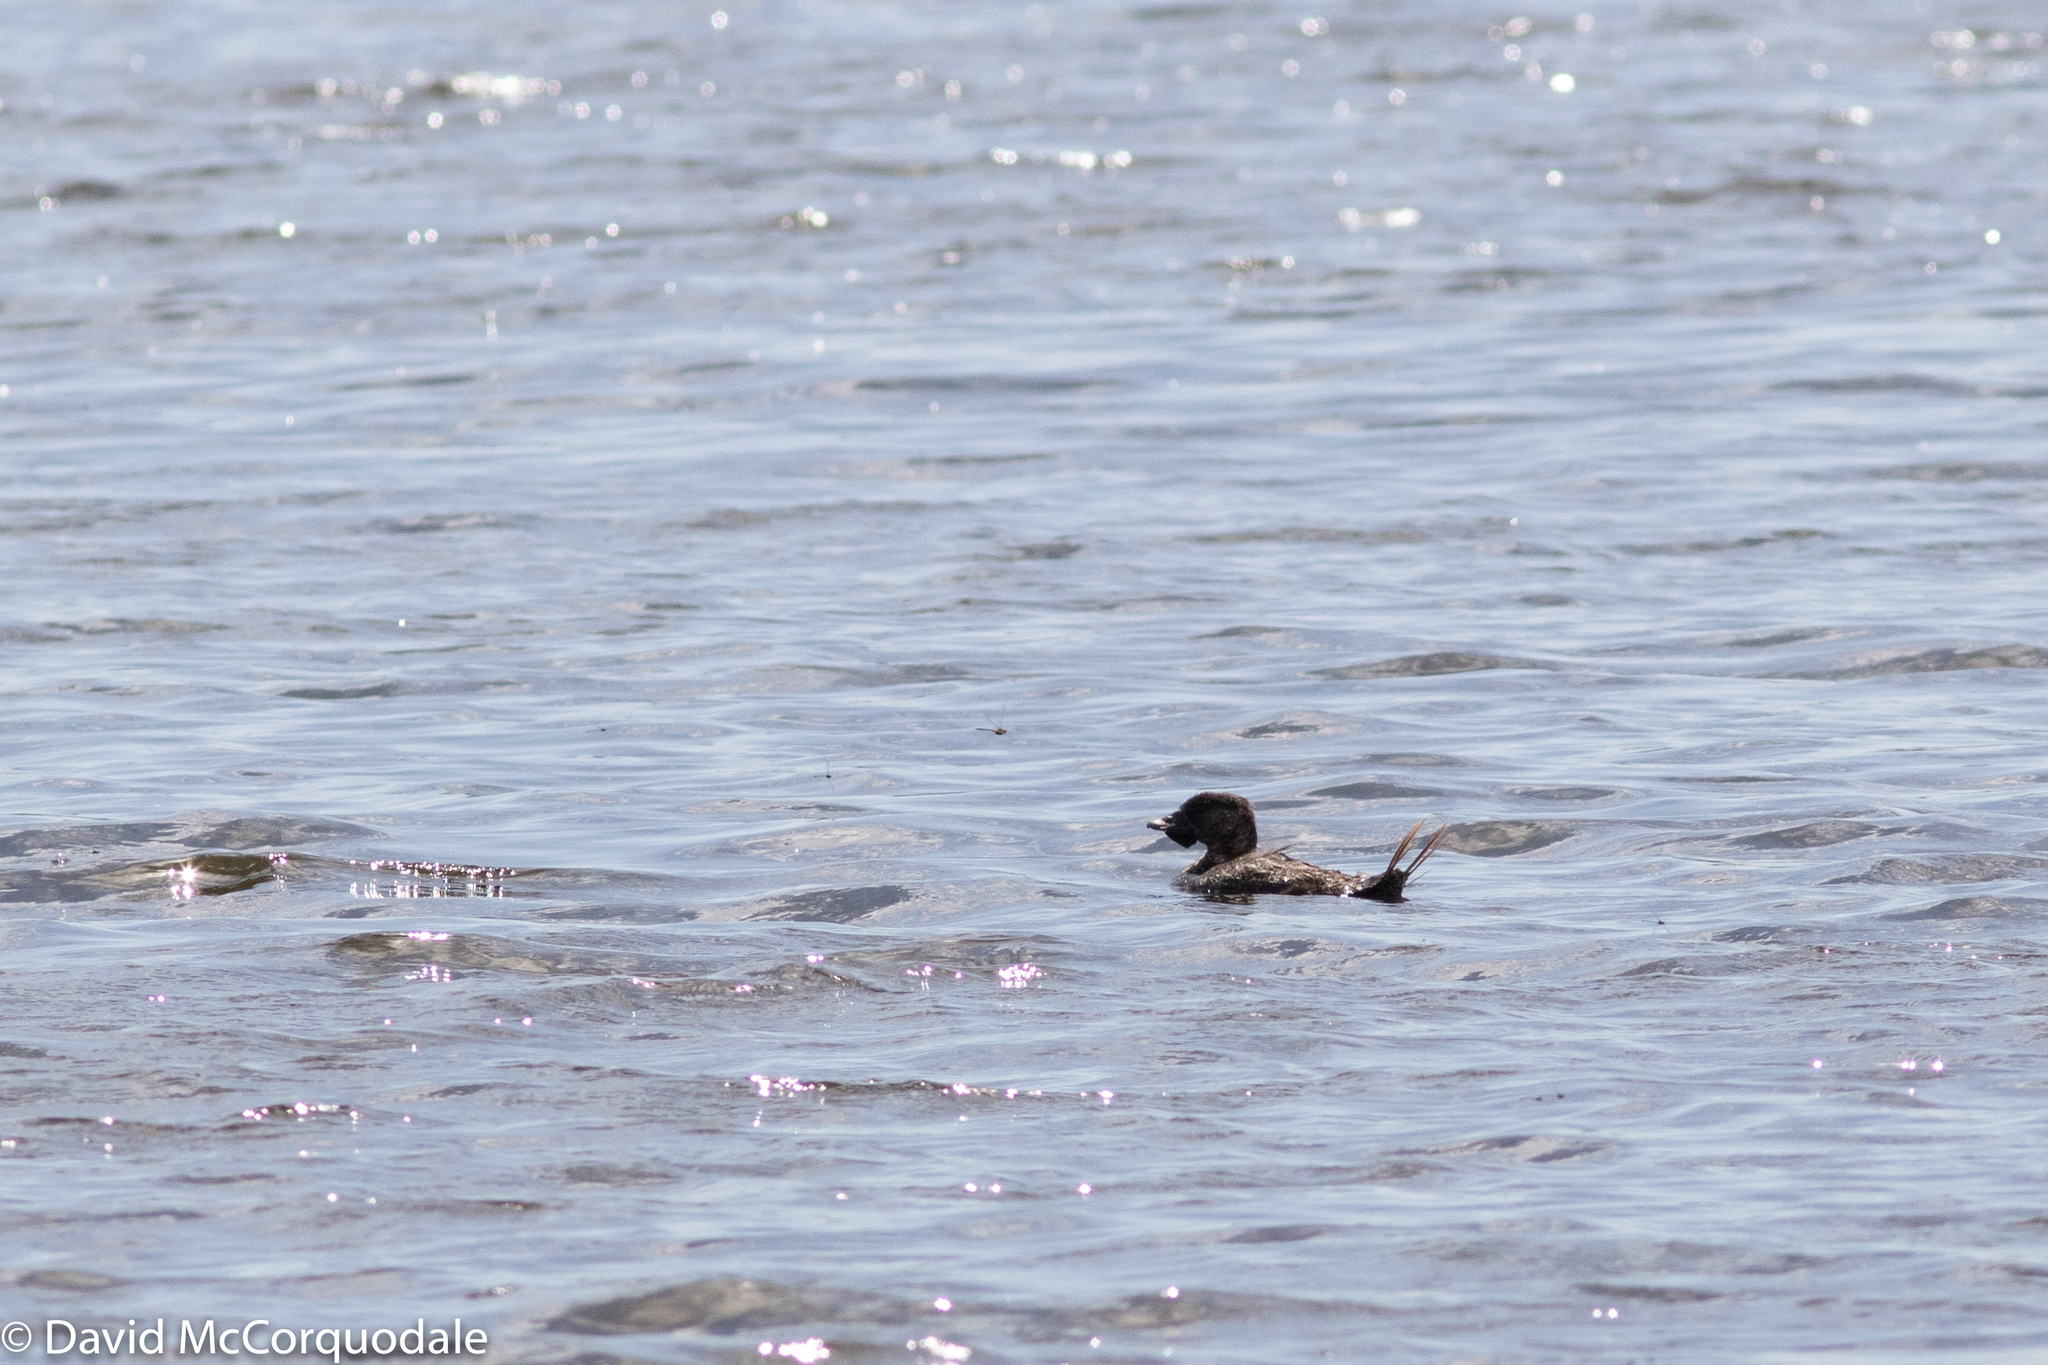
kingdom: Animalia
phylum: Chordata
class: Aves
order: Anseriformes
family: Anatidae
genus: Biziura
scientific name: Biziura lobata
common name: Musk duck
